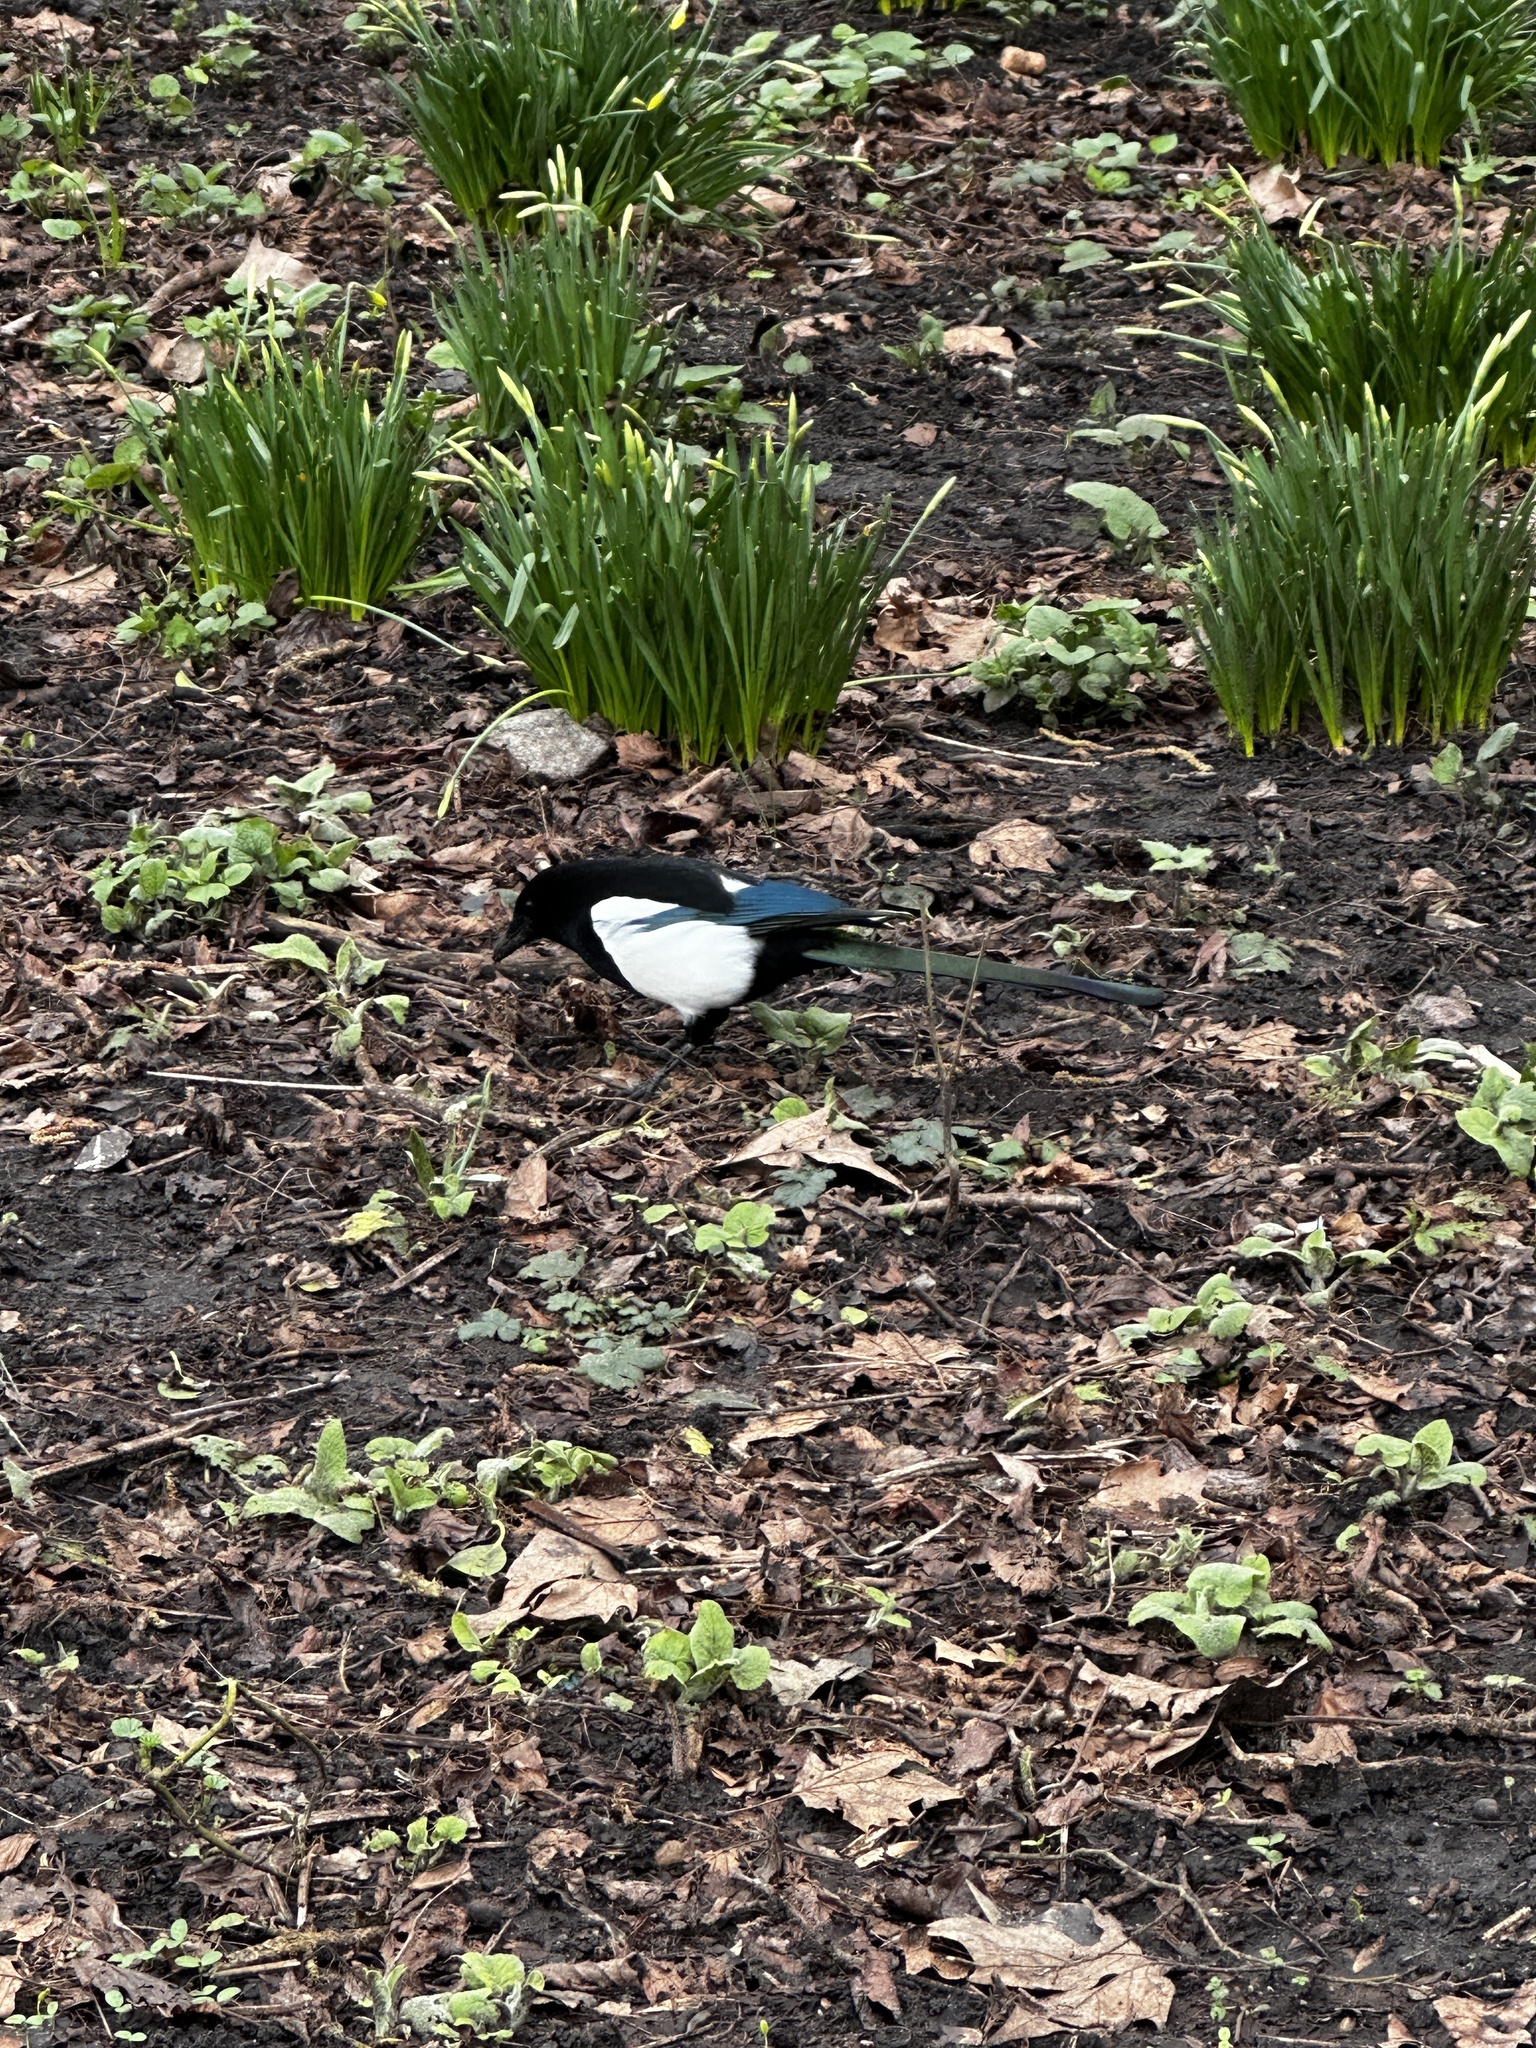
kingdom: Animalia
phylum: Chordata
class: Aves
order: Passeriformes
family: Corvidae
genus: Pica
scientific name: Pica pica
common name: Eurasian magpie
